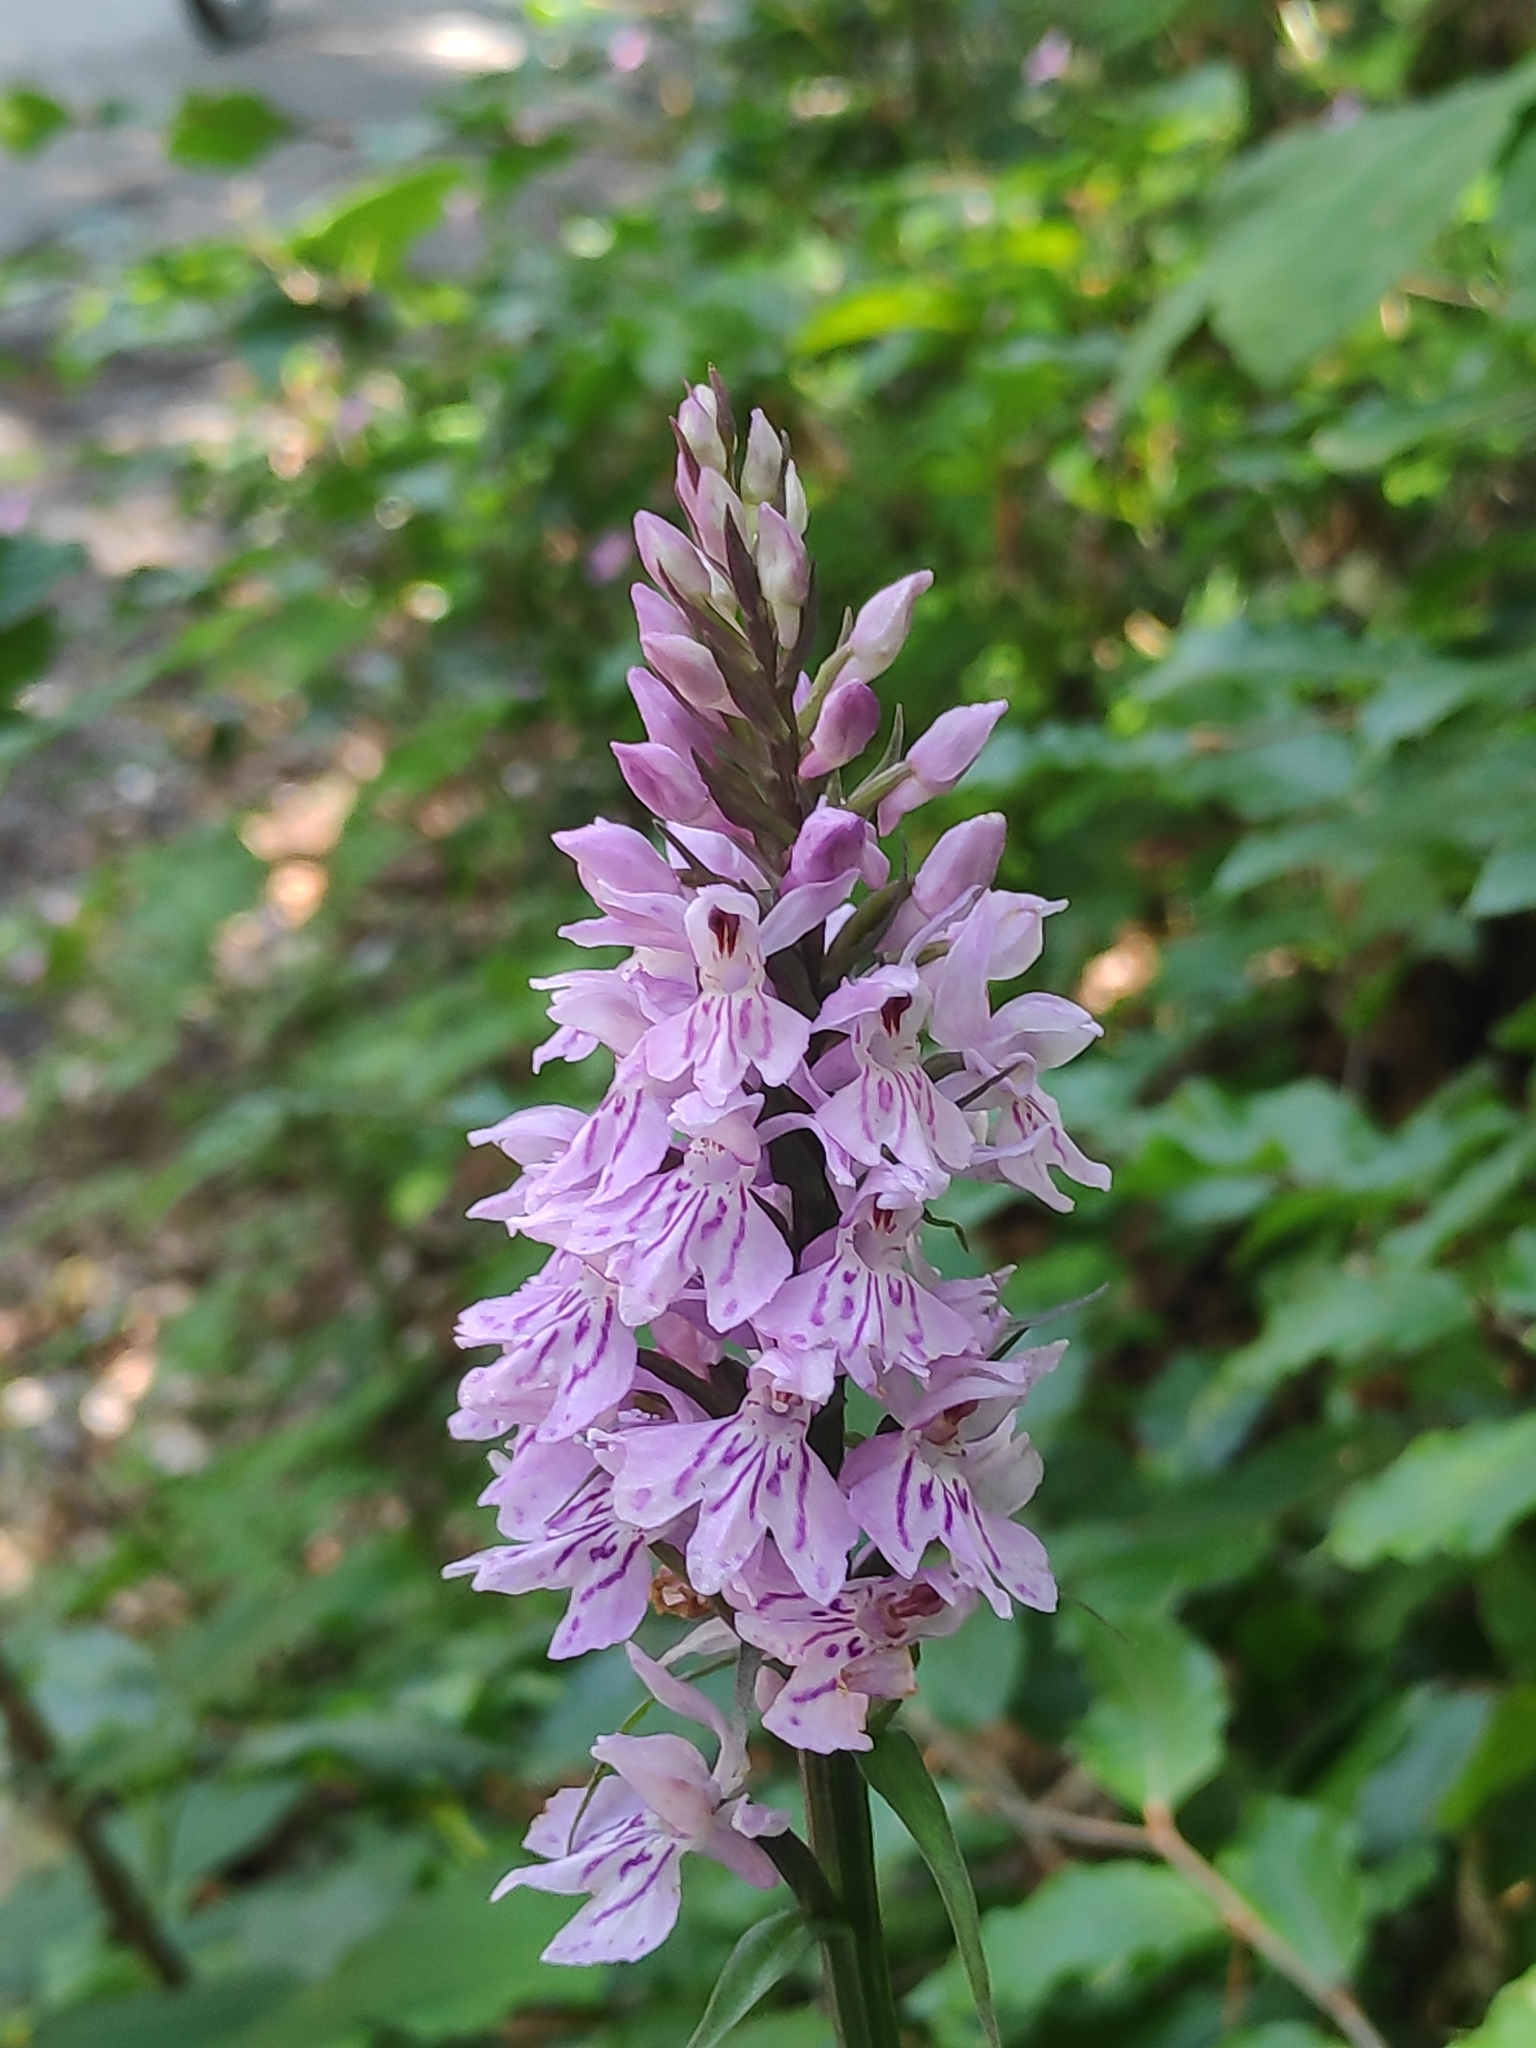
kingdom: Plantae
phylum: Tracheophyta
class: Liliopsida
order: Asparagales
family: Orchidaceae
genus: Dactylorhiza
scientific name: Dactylorhiza maculata
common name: Heath spotted-orchid
